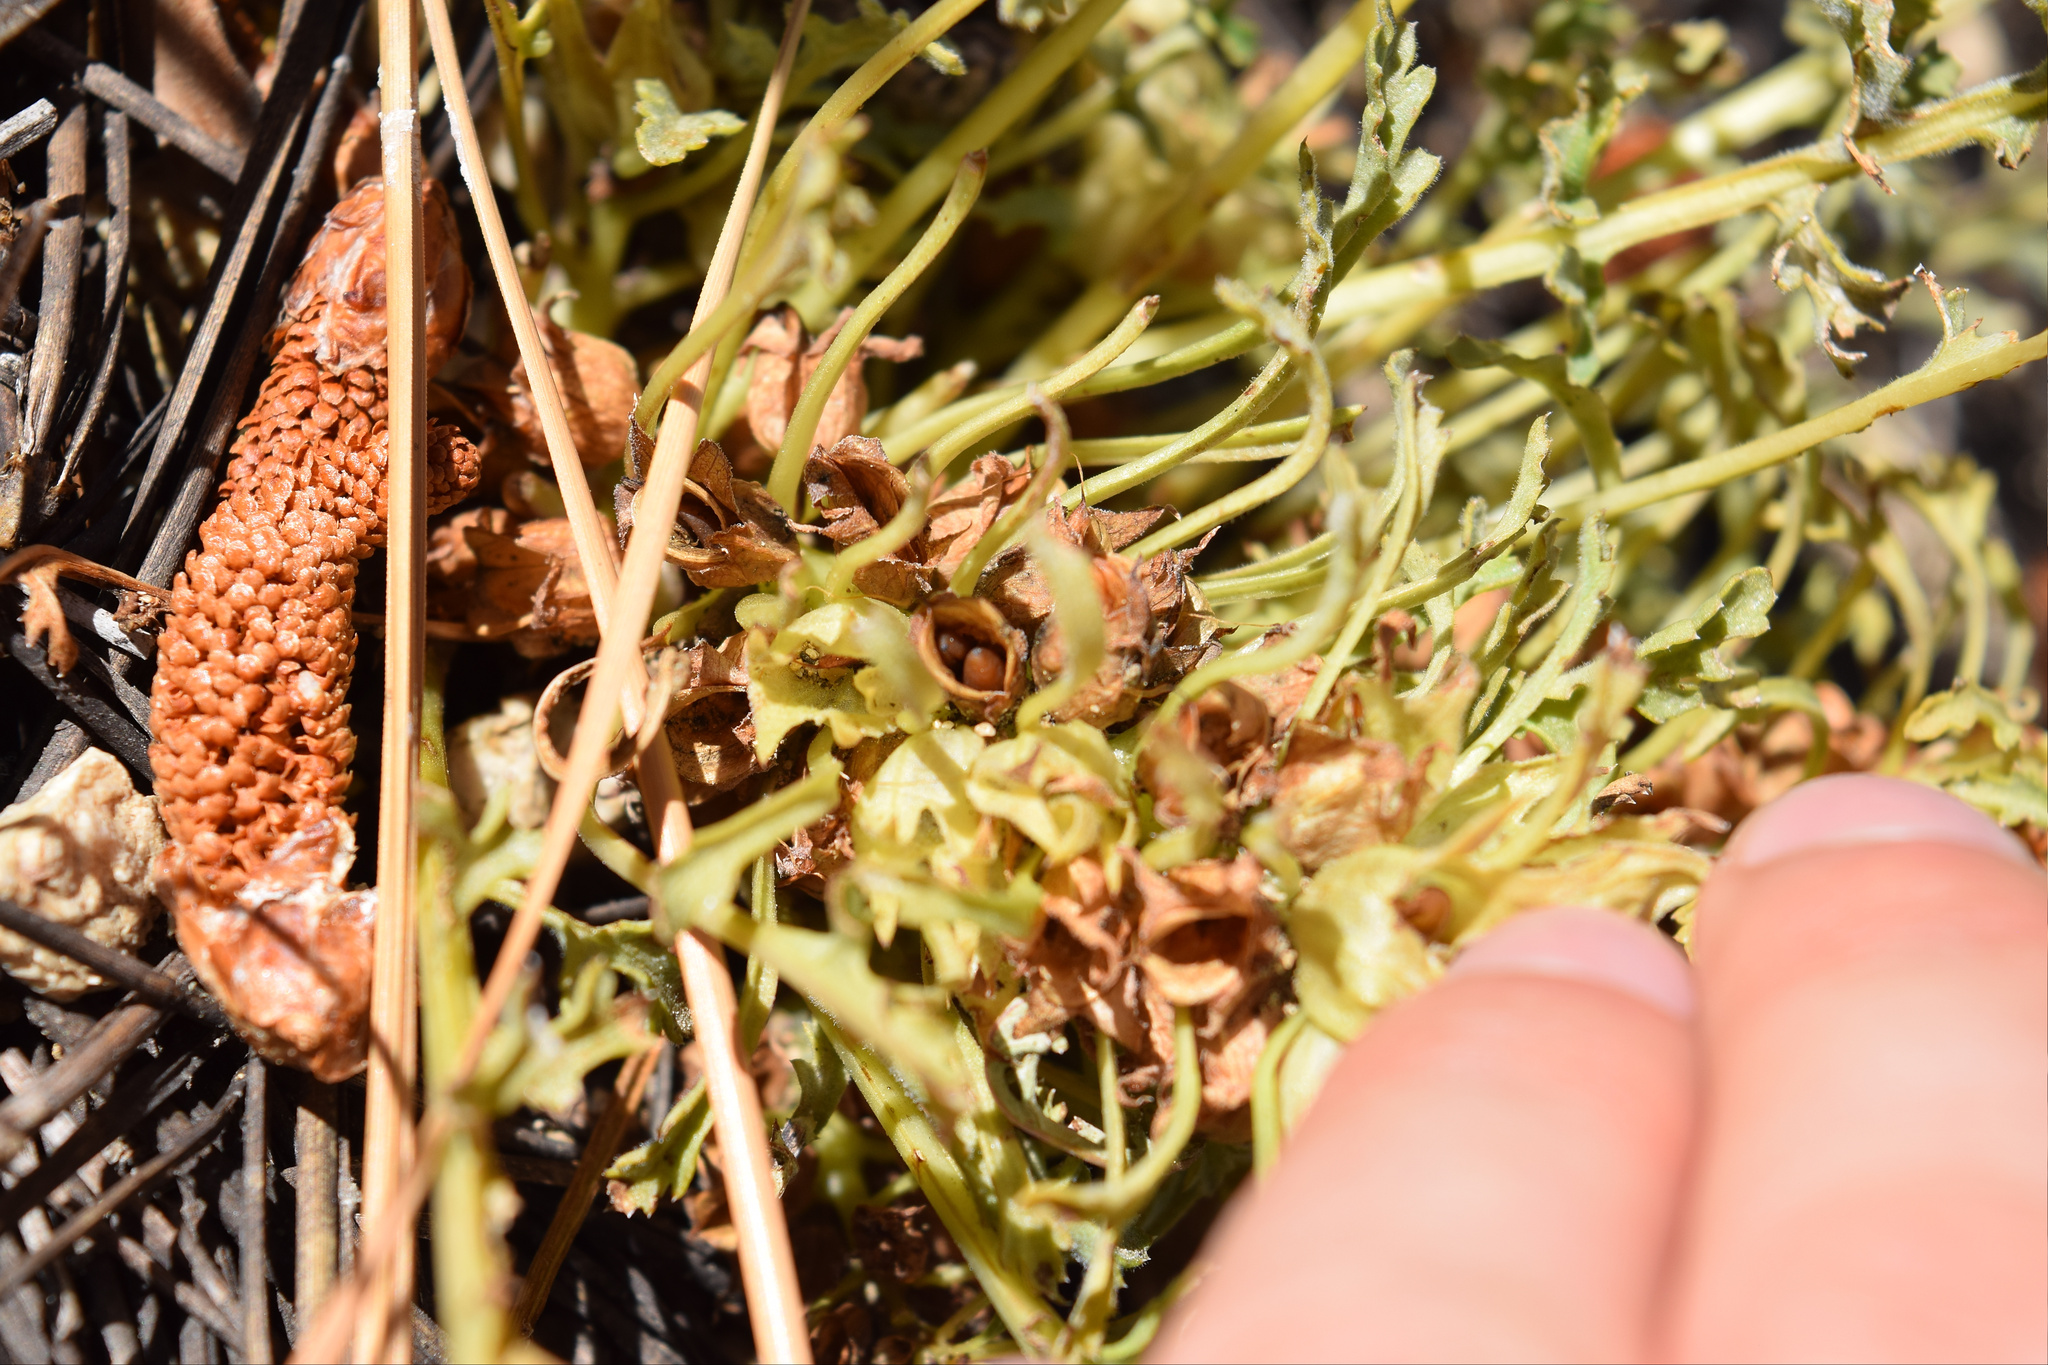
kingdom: Plantae
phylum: Tracheophyta
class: Magnoliopsida
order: Lamiales
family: Orobanchaceae
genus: Pedicularis
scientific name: Pedicularis semibarbata
